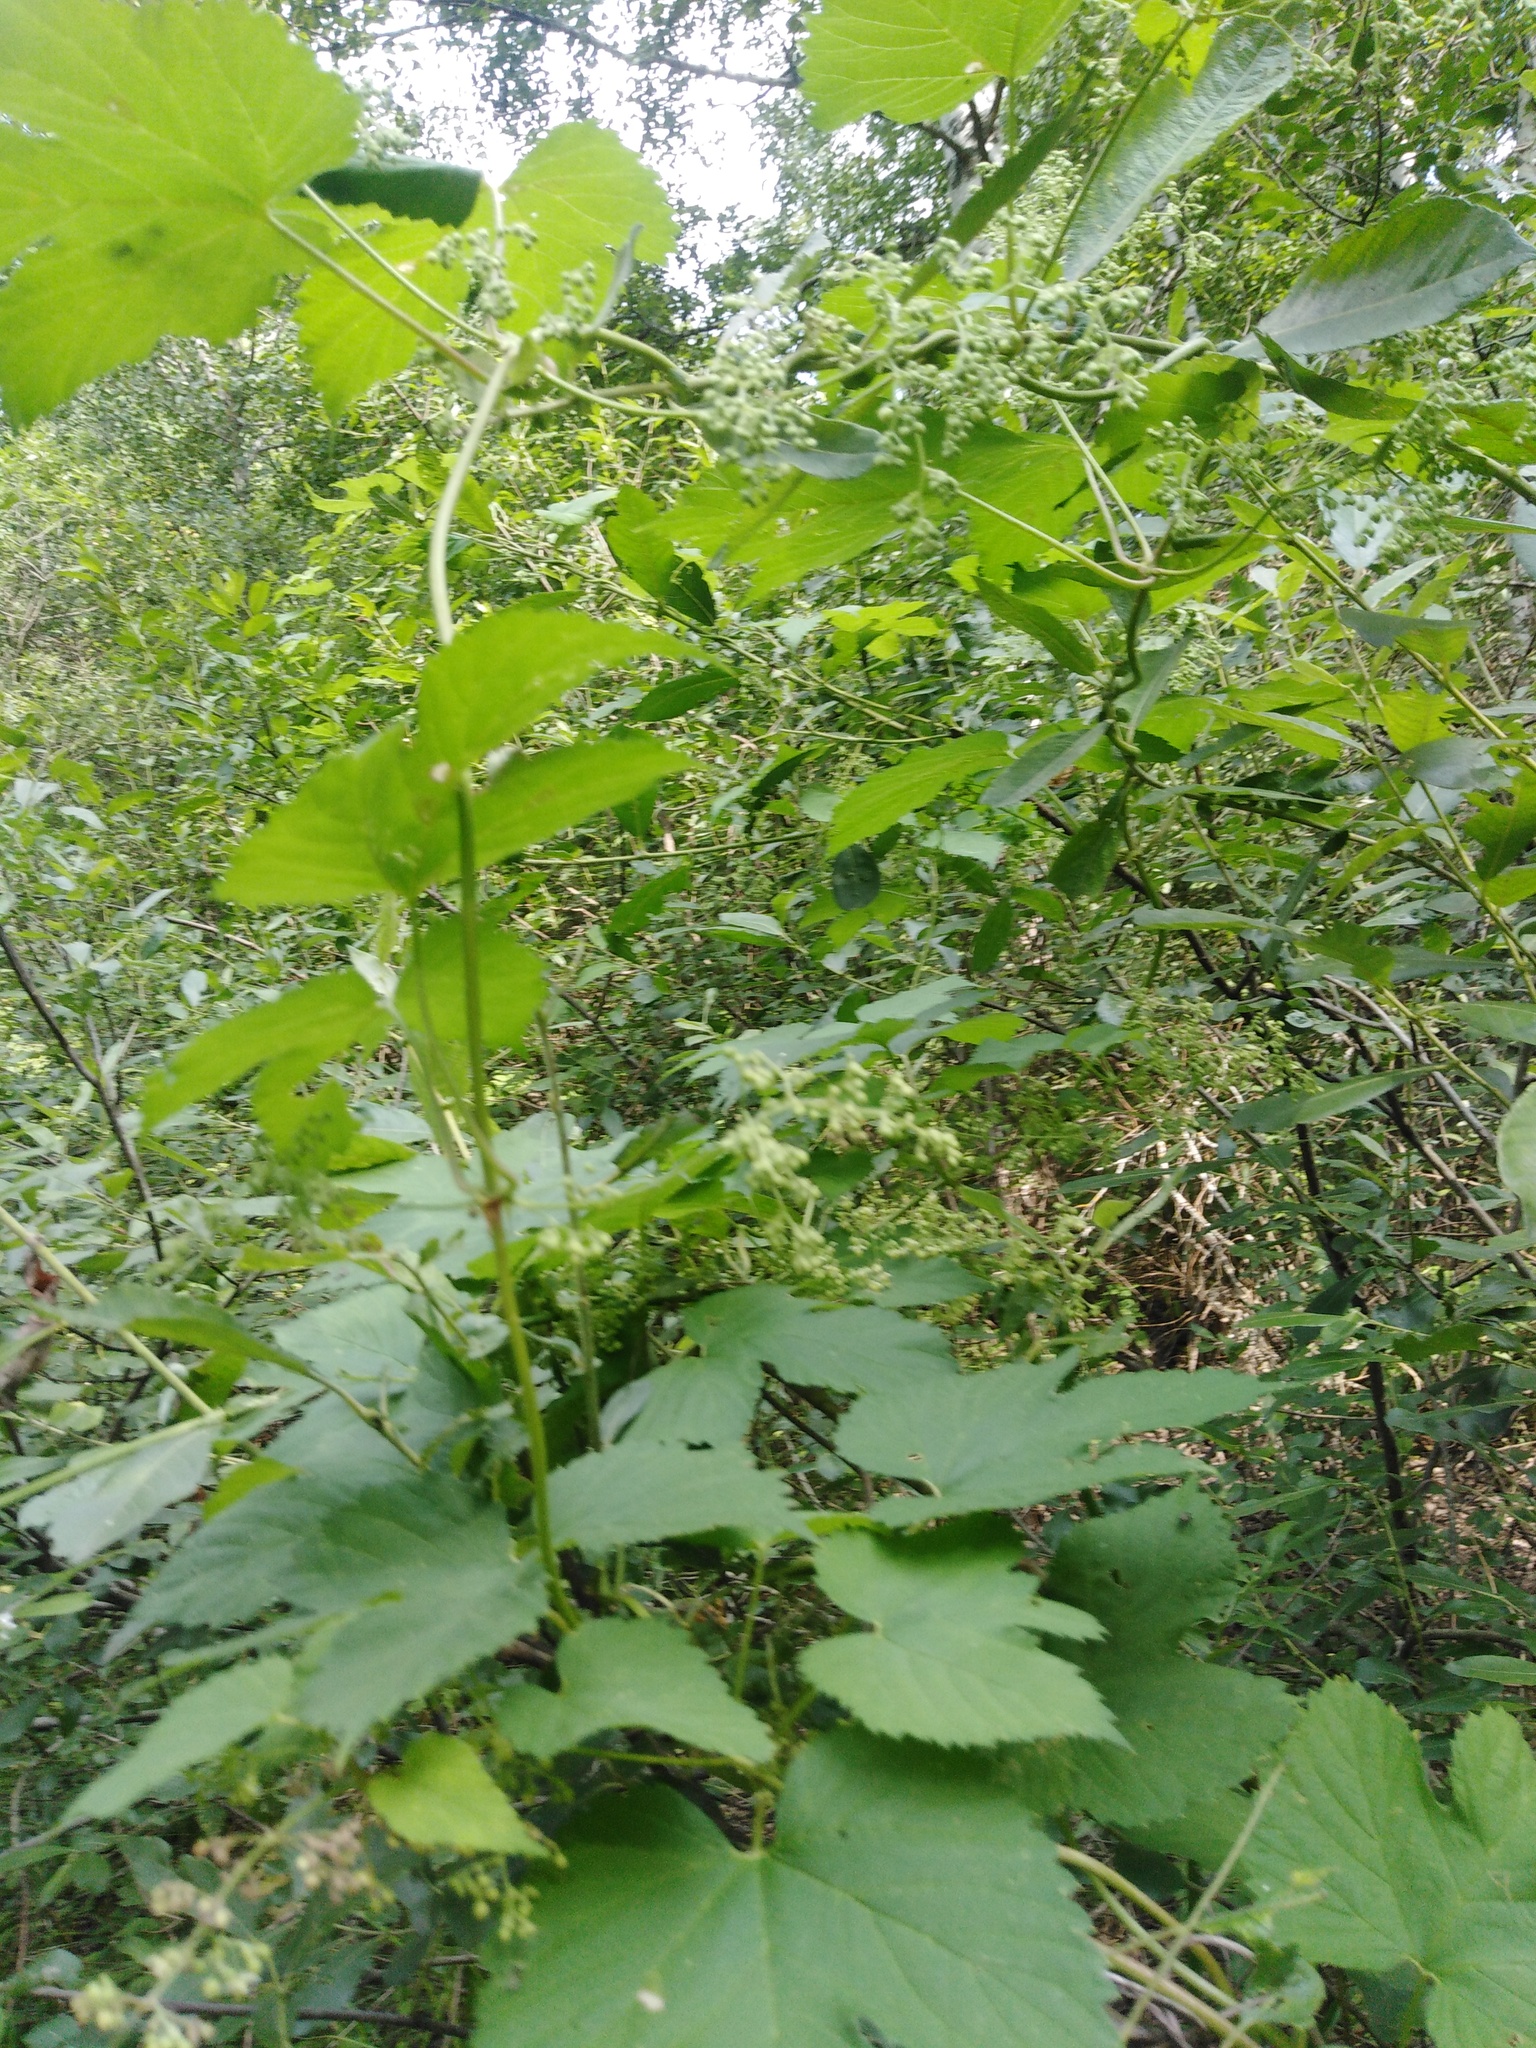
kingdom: Plantae
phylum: Tracheophyta
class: Magnoliopsida
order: Rosales
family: Cannabaceae
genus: Humulus
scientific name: Humulus lupulus
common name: Hop
